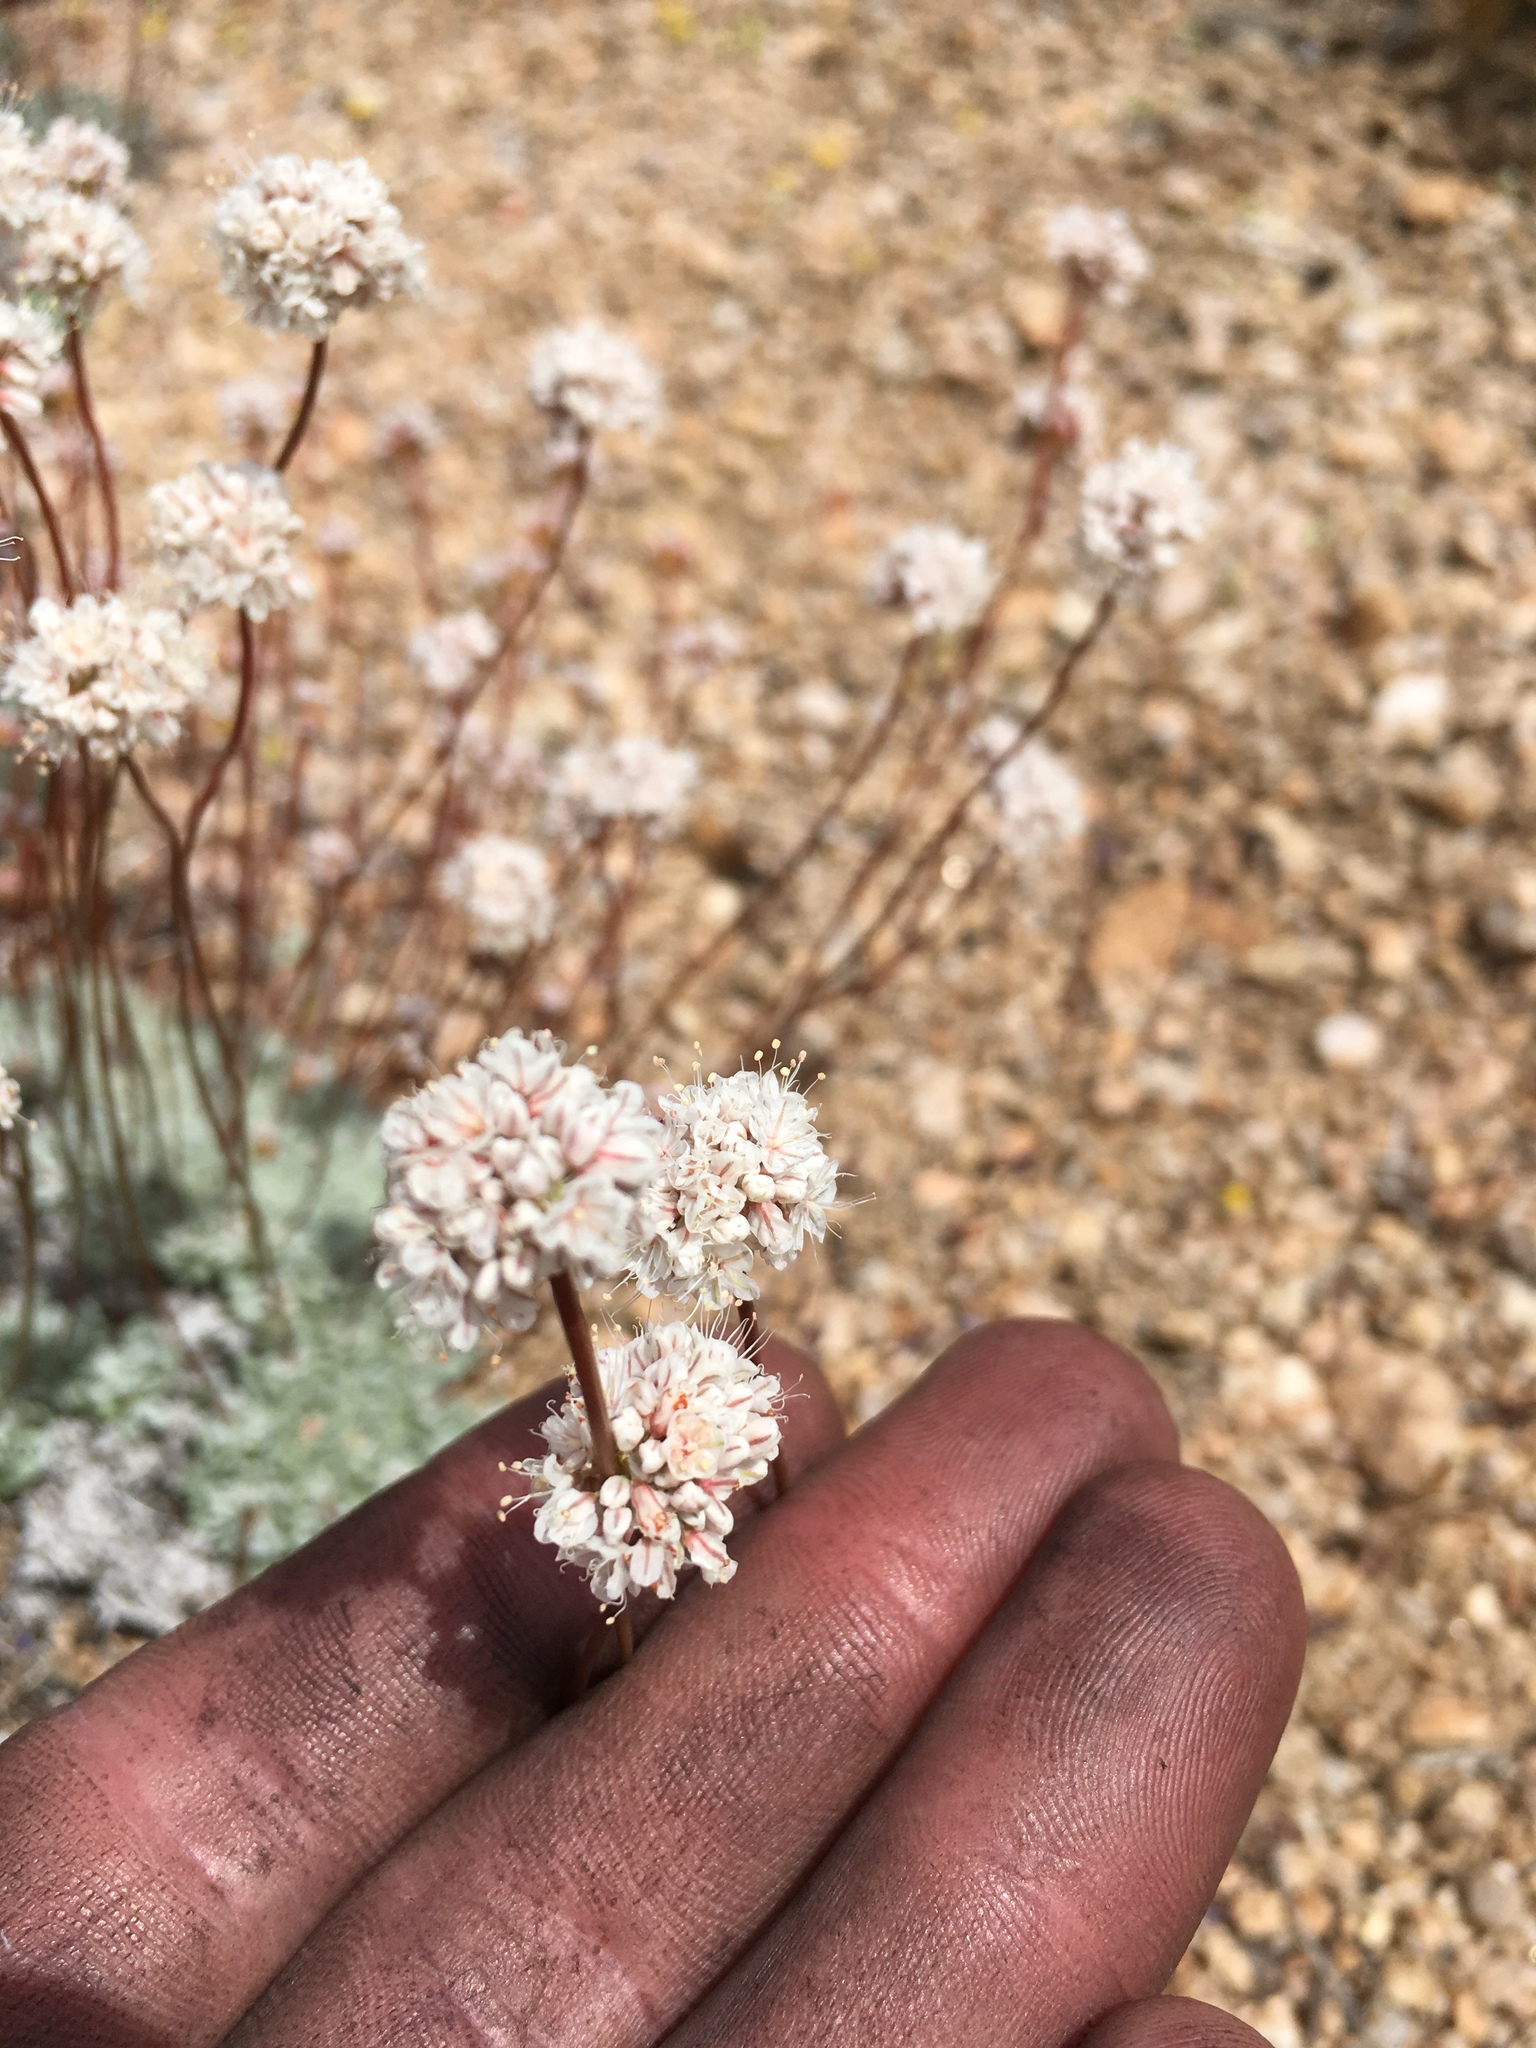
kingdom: Plantae
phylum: Tracheophyta
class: Magnoliopsida
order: Caryophyllales
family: Polygonaceae
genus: Eriogonum
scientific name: Eriogonum kennedyi
